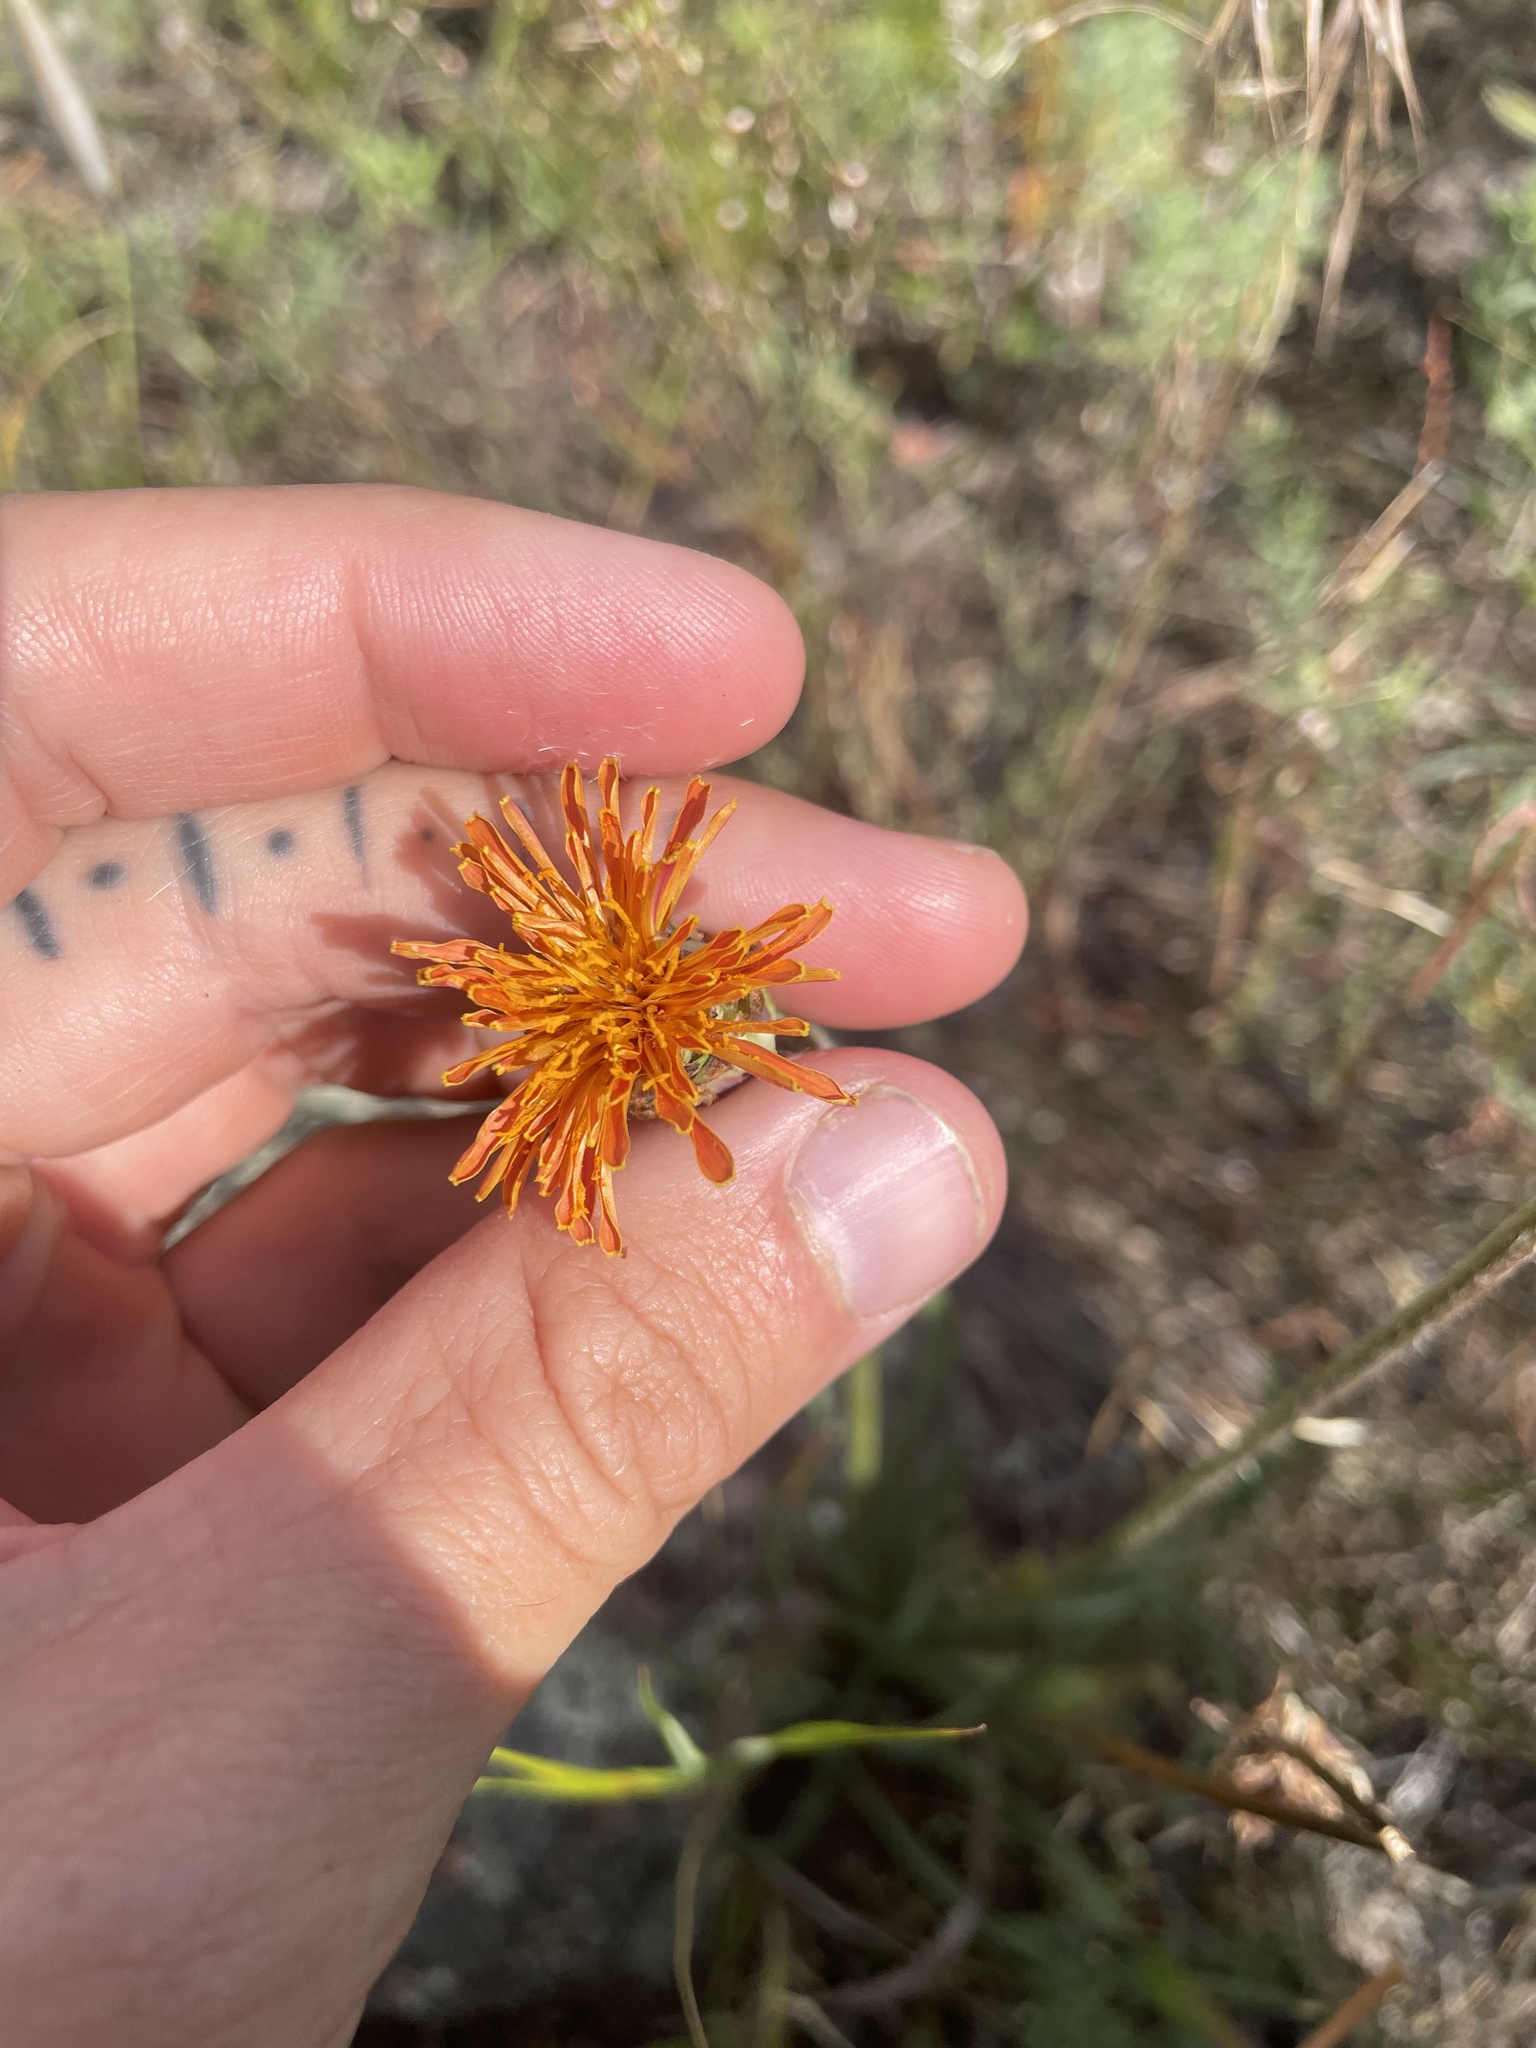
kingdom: Plantae
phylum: Tracheophyta
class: Magnoliopsida
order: Asterales
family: Asteraceae
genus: Agoseris
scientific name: Agoseris aurantiaca
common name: Mountain agoseris
